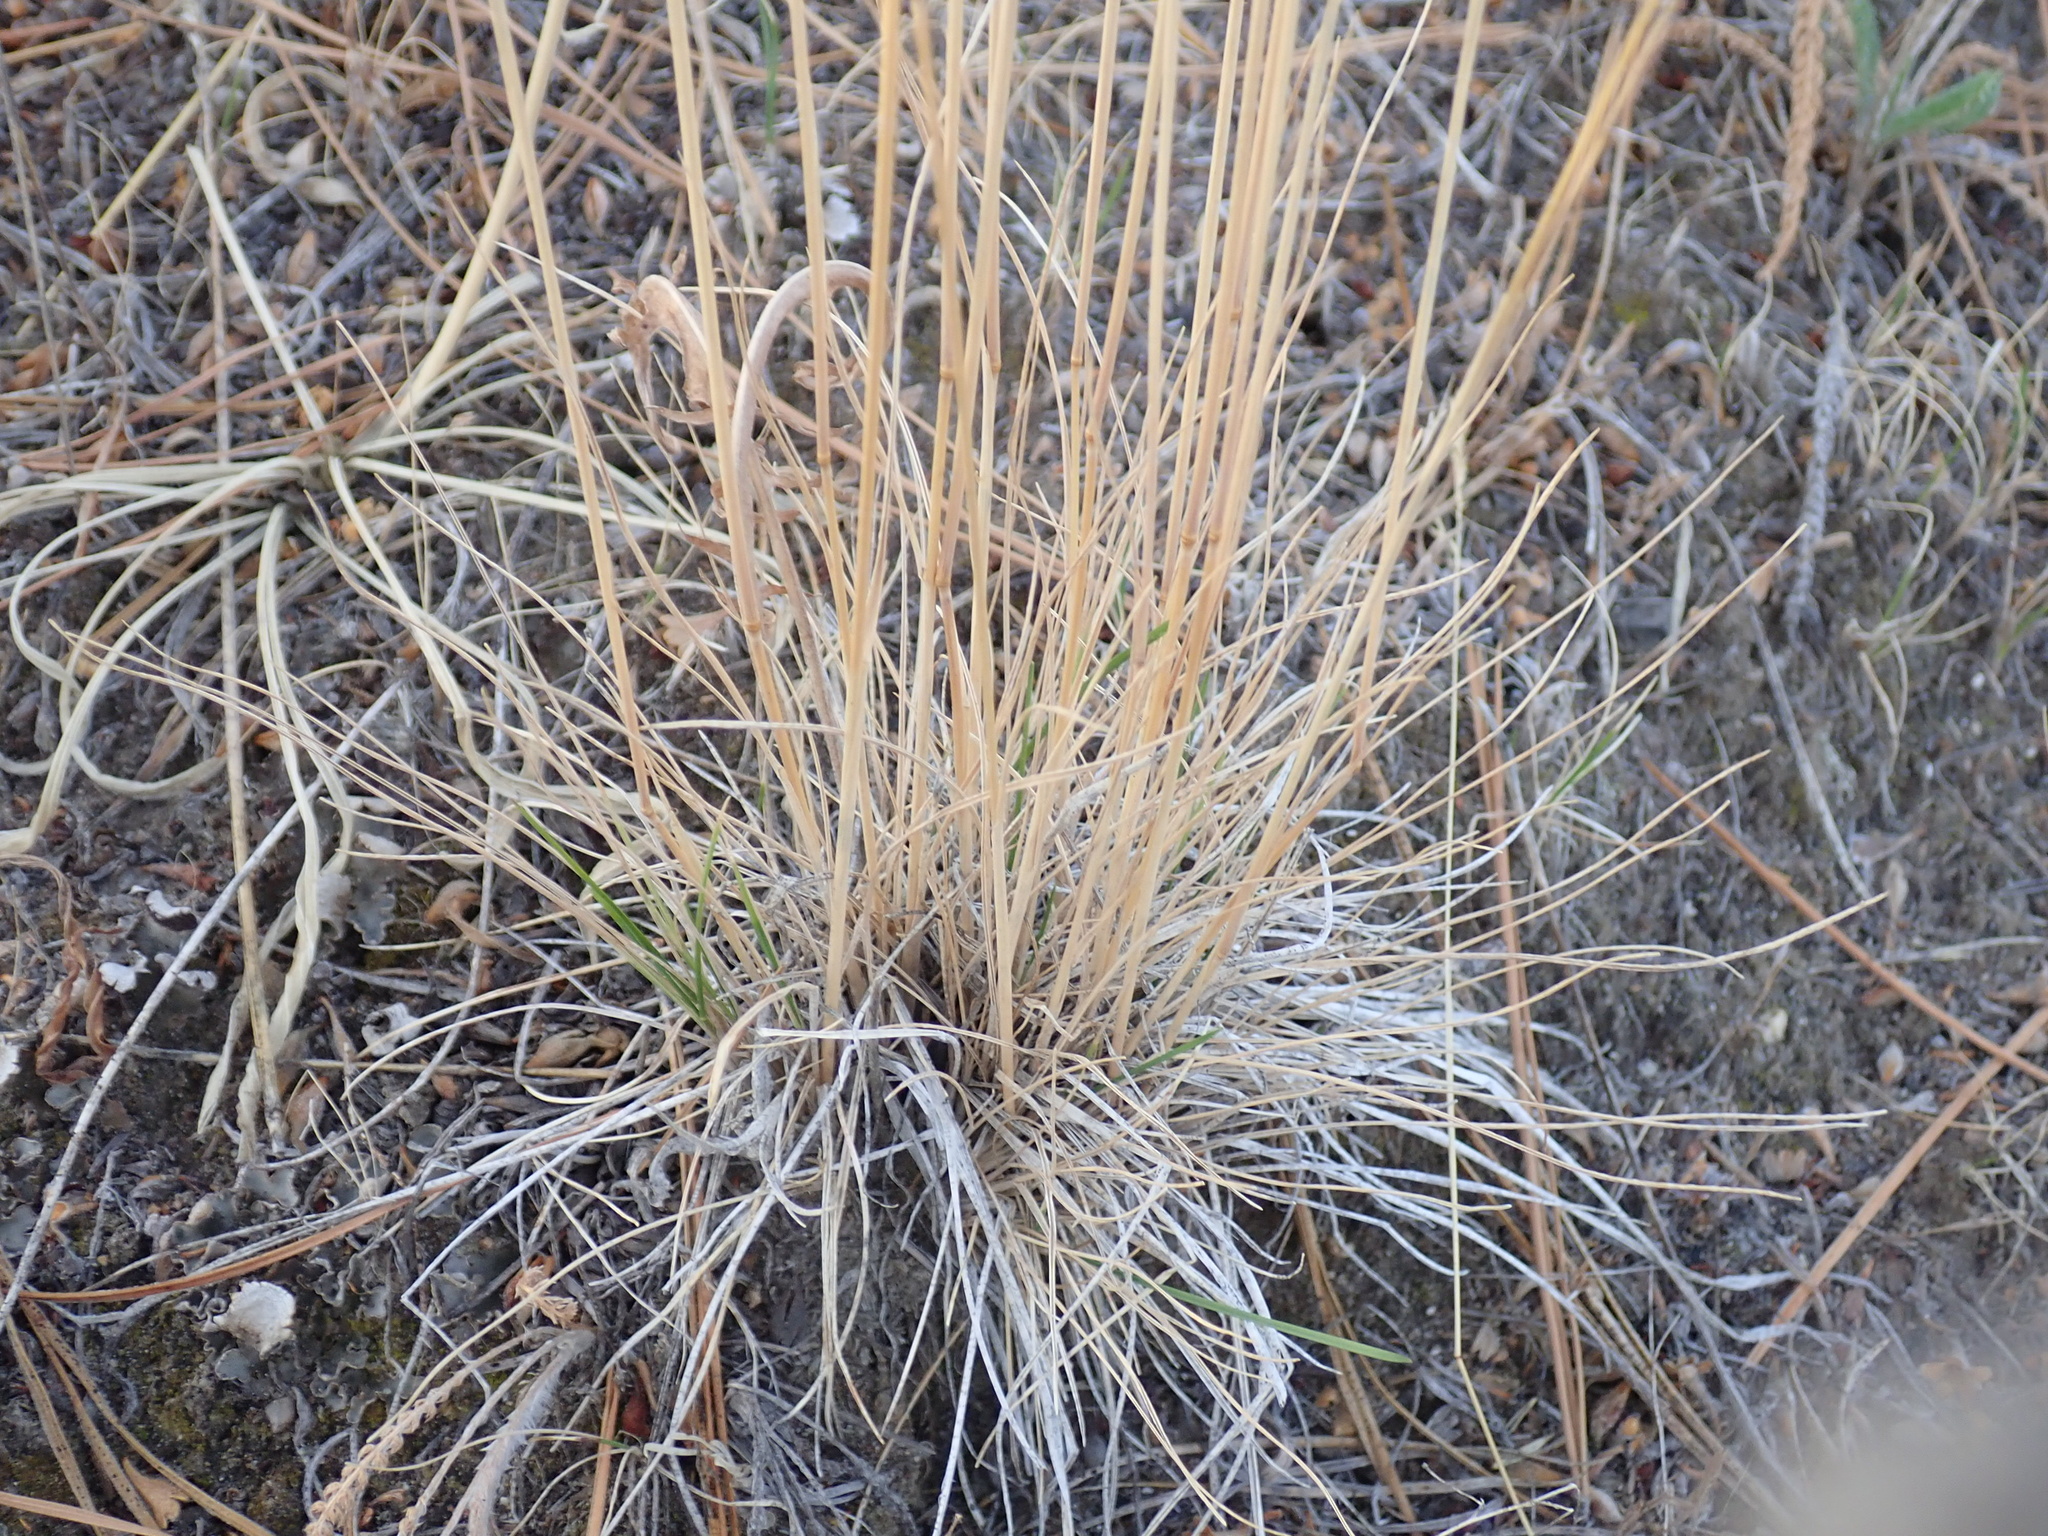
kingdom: Plantae
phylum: Tracheophyta
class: Liliopsida
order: Poales
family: Poaceae
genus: Koeleria
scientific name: Koeleria macrantha
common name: Crested hair-grass
